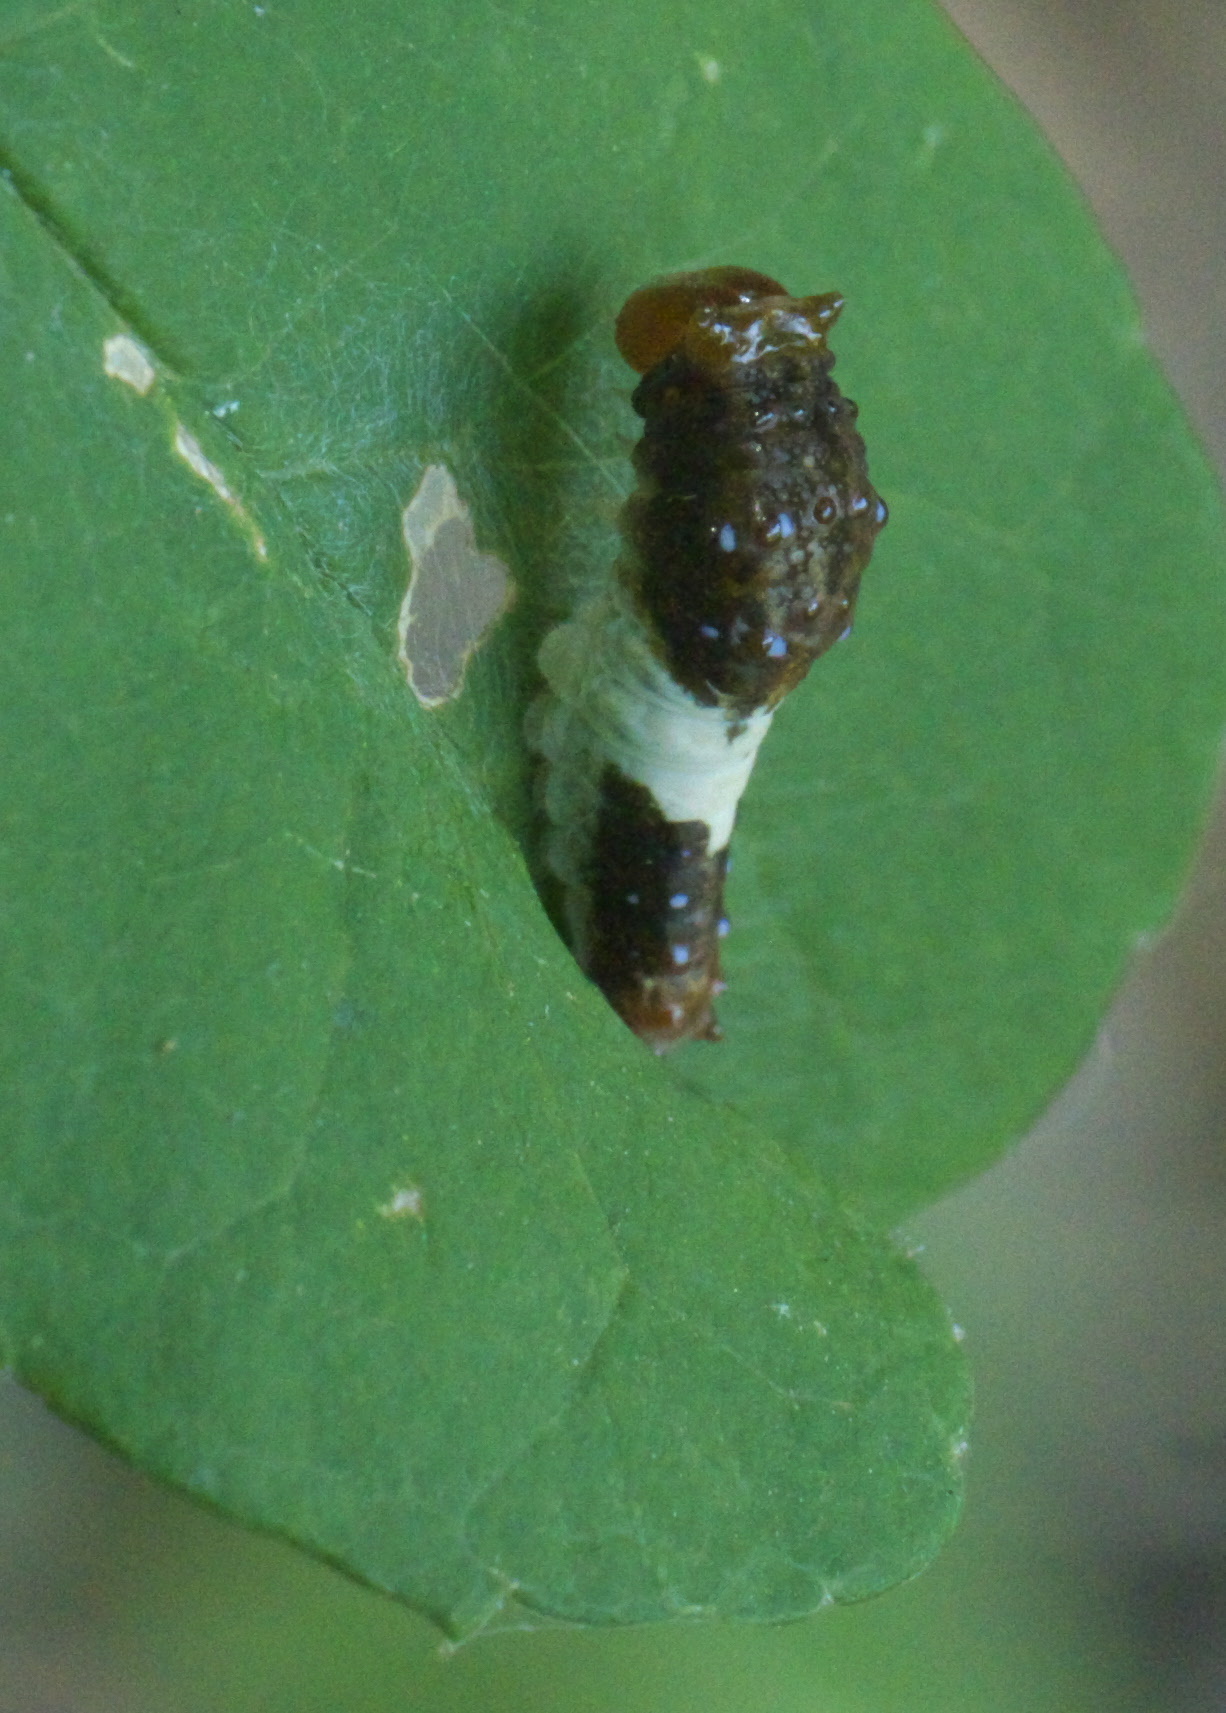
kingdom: Animalia
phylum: Arthropoda
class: Insecta
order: Lepidoptera
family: Papilionidae
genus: Papilio
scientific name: Papilio glaucus
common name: Tiger swallowtail
